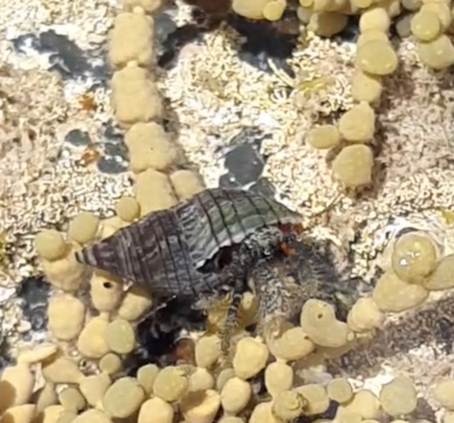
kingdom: Animalia
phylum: Arthropoda
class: Malacostraca
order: Decapoda
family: Paguridae
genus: Pagurus
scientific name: Pagurus traversi
